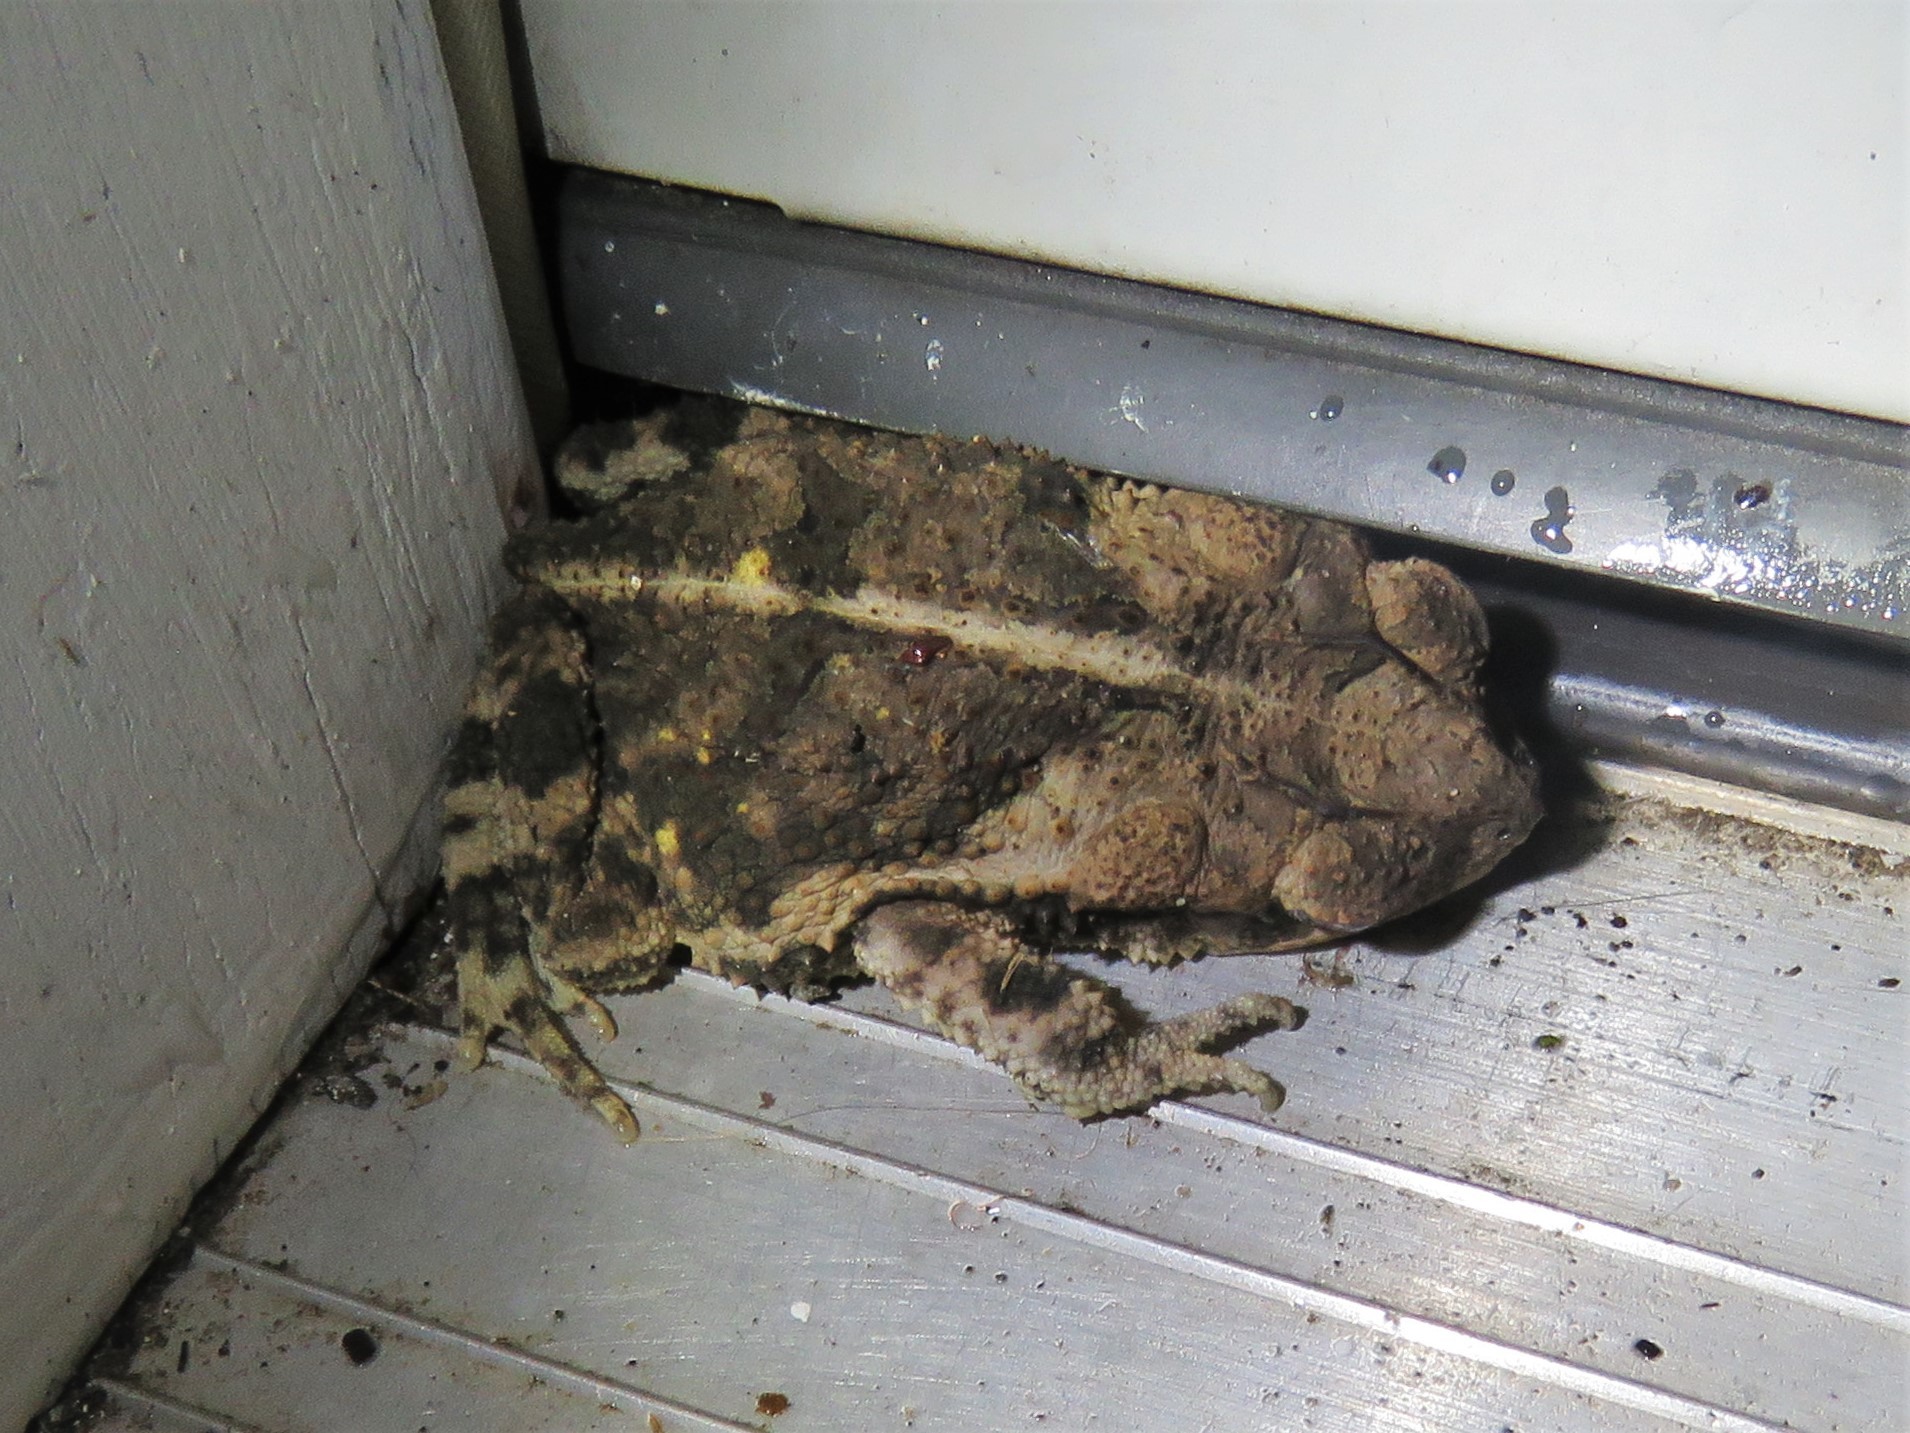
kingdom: Animalia
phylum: Chordata
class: Amphibia
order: Anura
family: Bufonidae
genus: Incilius
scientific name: Incilius nebulifer
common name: Gulf coast toad
